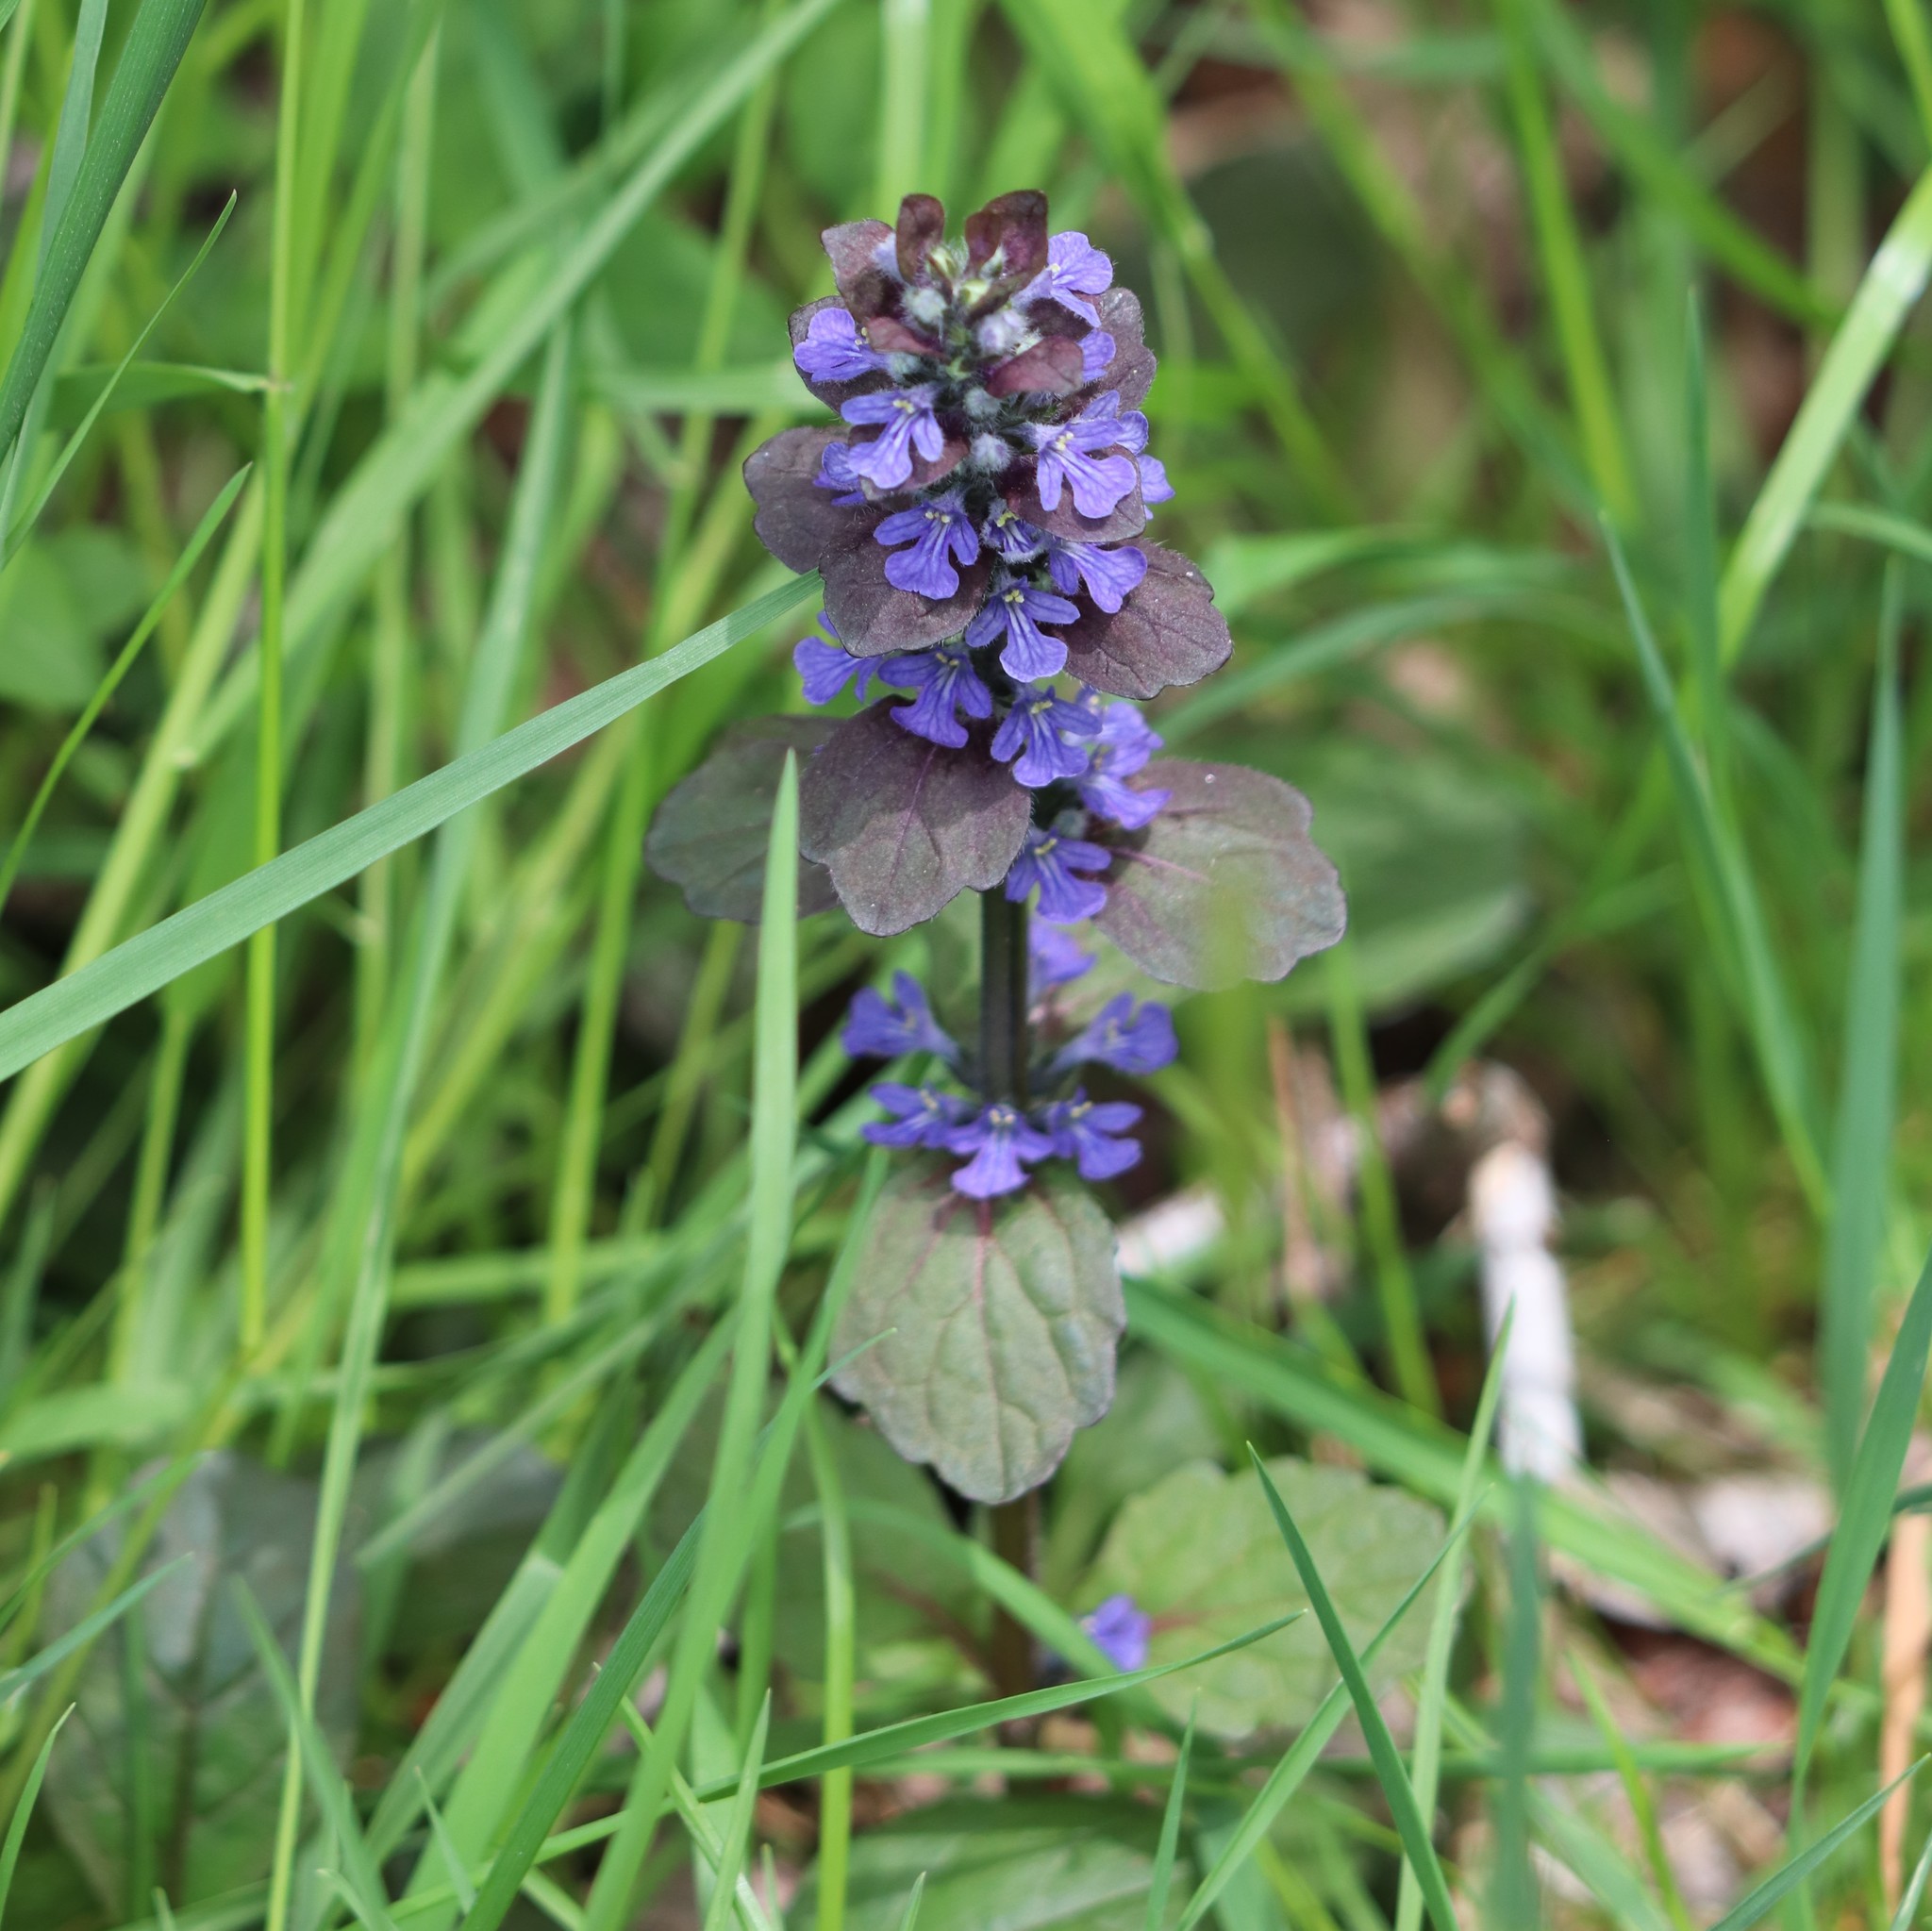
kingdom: Plantae
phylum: Tracheophyta
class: Magnoliopsida
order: Lamiales
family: Lamiaceae
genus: Ajuga
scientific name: Ajuga reptans
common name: Bugle
